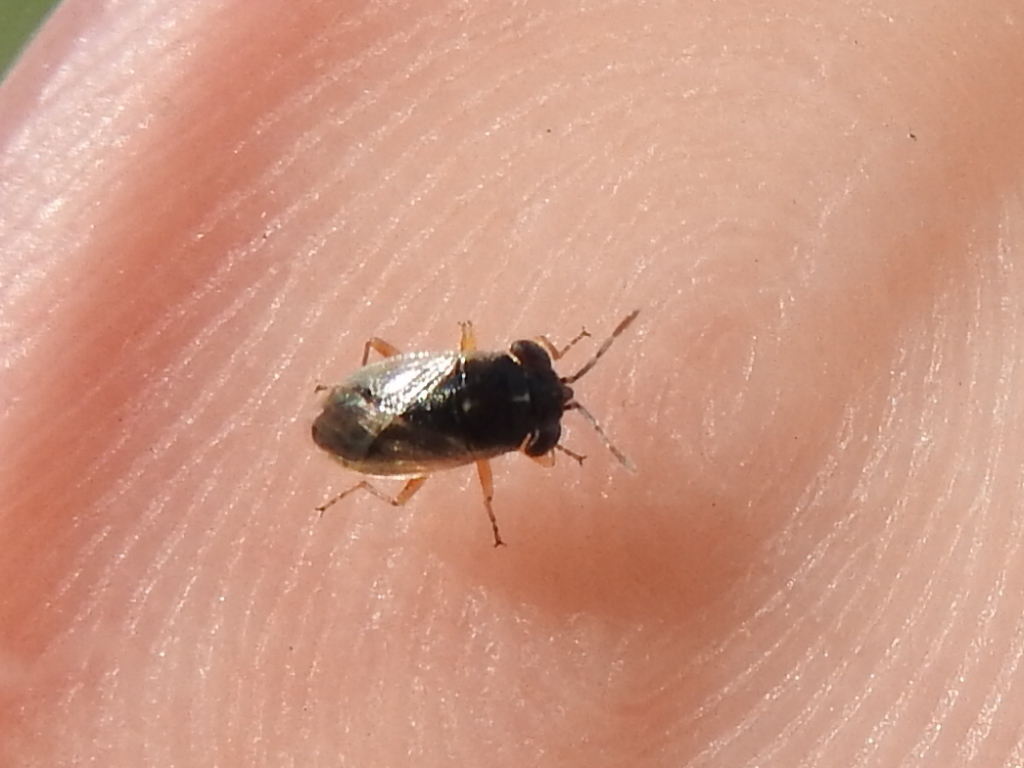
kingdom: Animalia
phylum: Arthropoda
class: Insecta
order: Hemiptera
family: Geocoridae
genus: Geocoris
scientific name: Geocoris lividipennis
